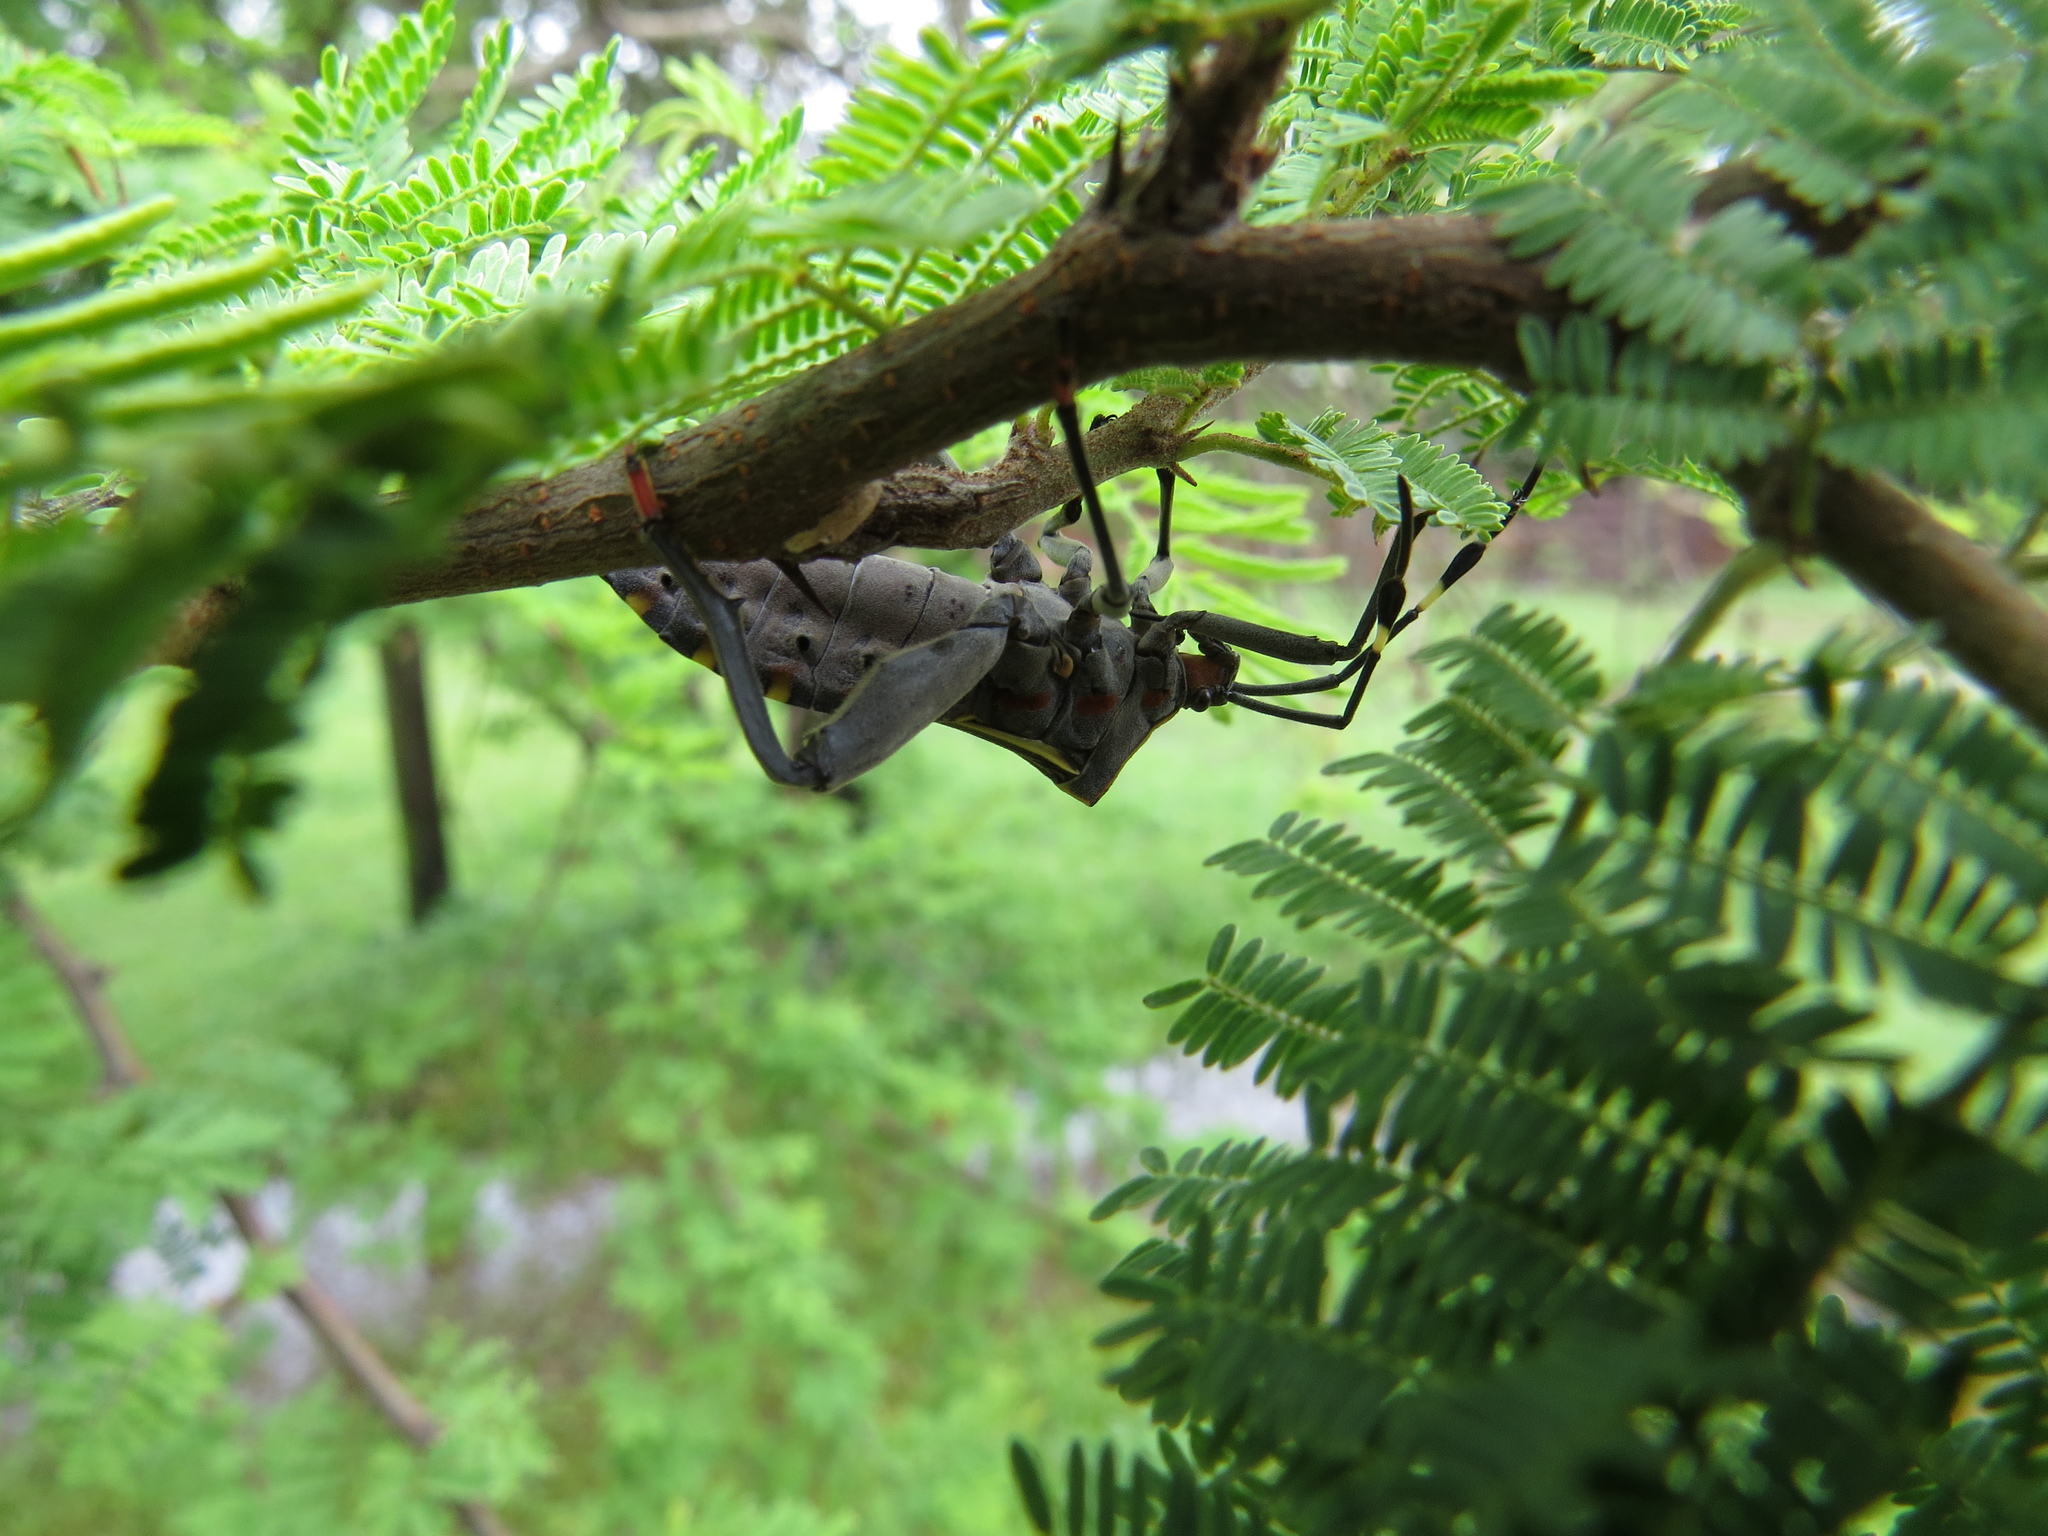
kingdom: Animalia
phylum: Arthropoda
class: Insecta
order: Hemiptera
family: Coreidae
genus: Pachylis
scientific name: Pachylis argentinus
